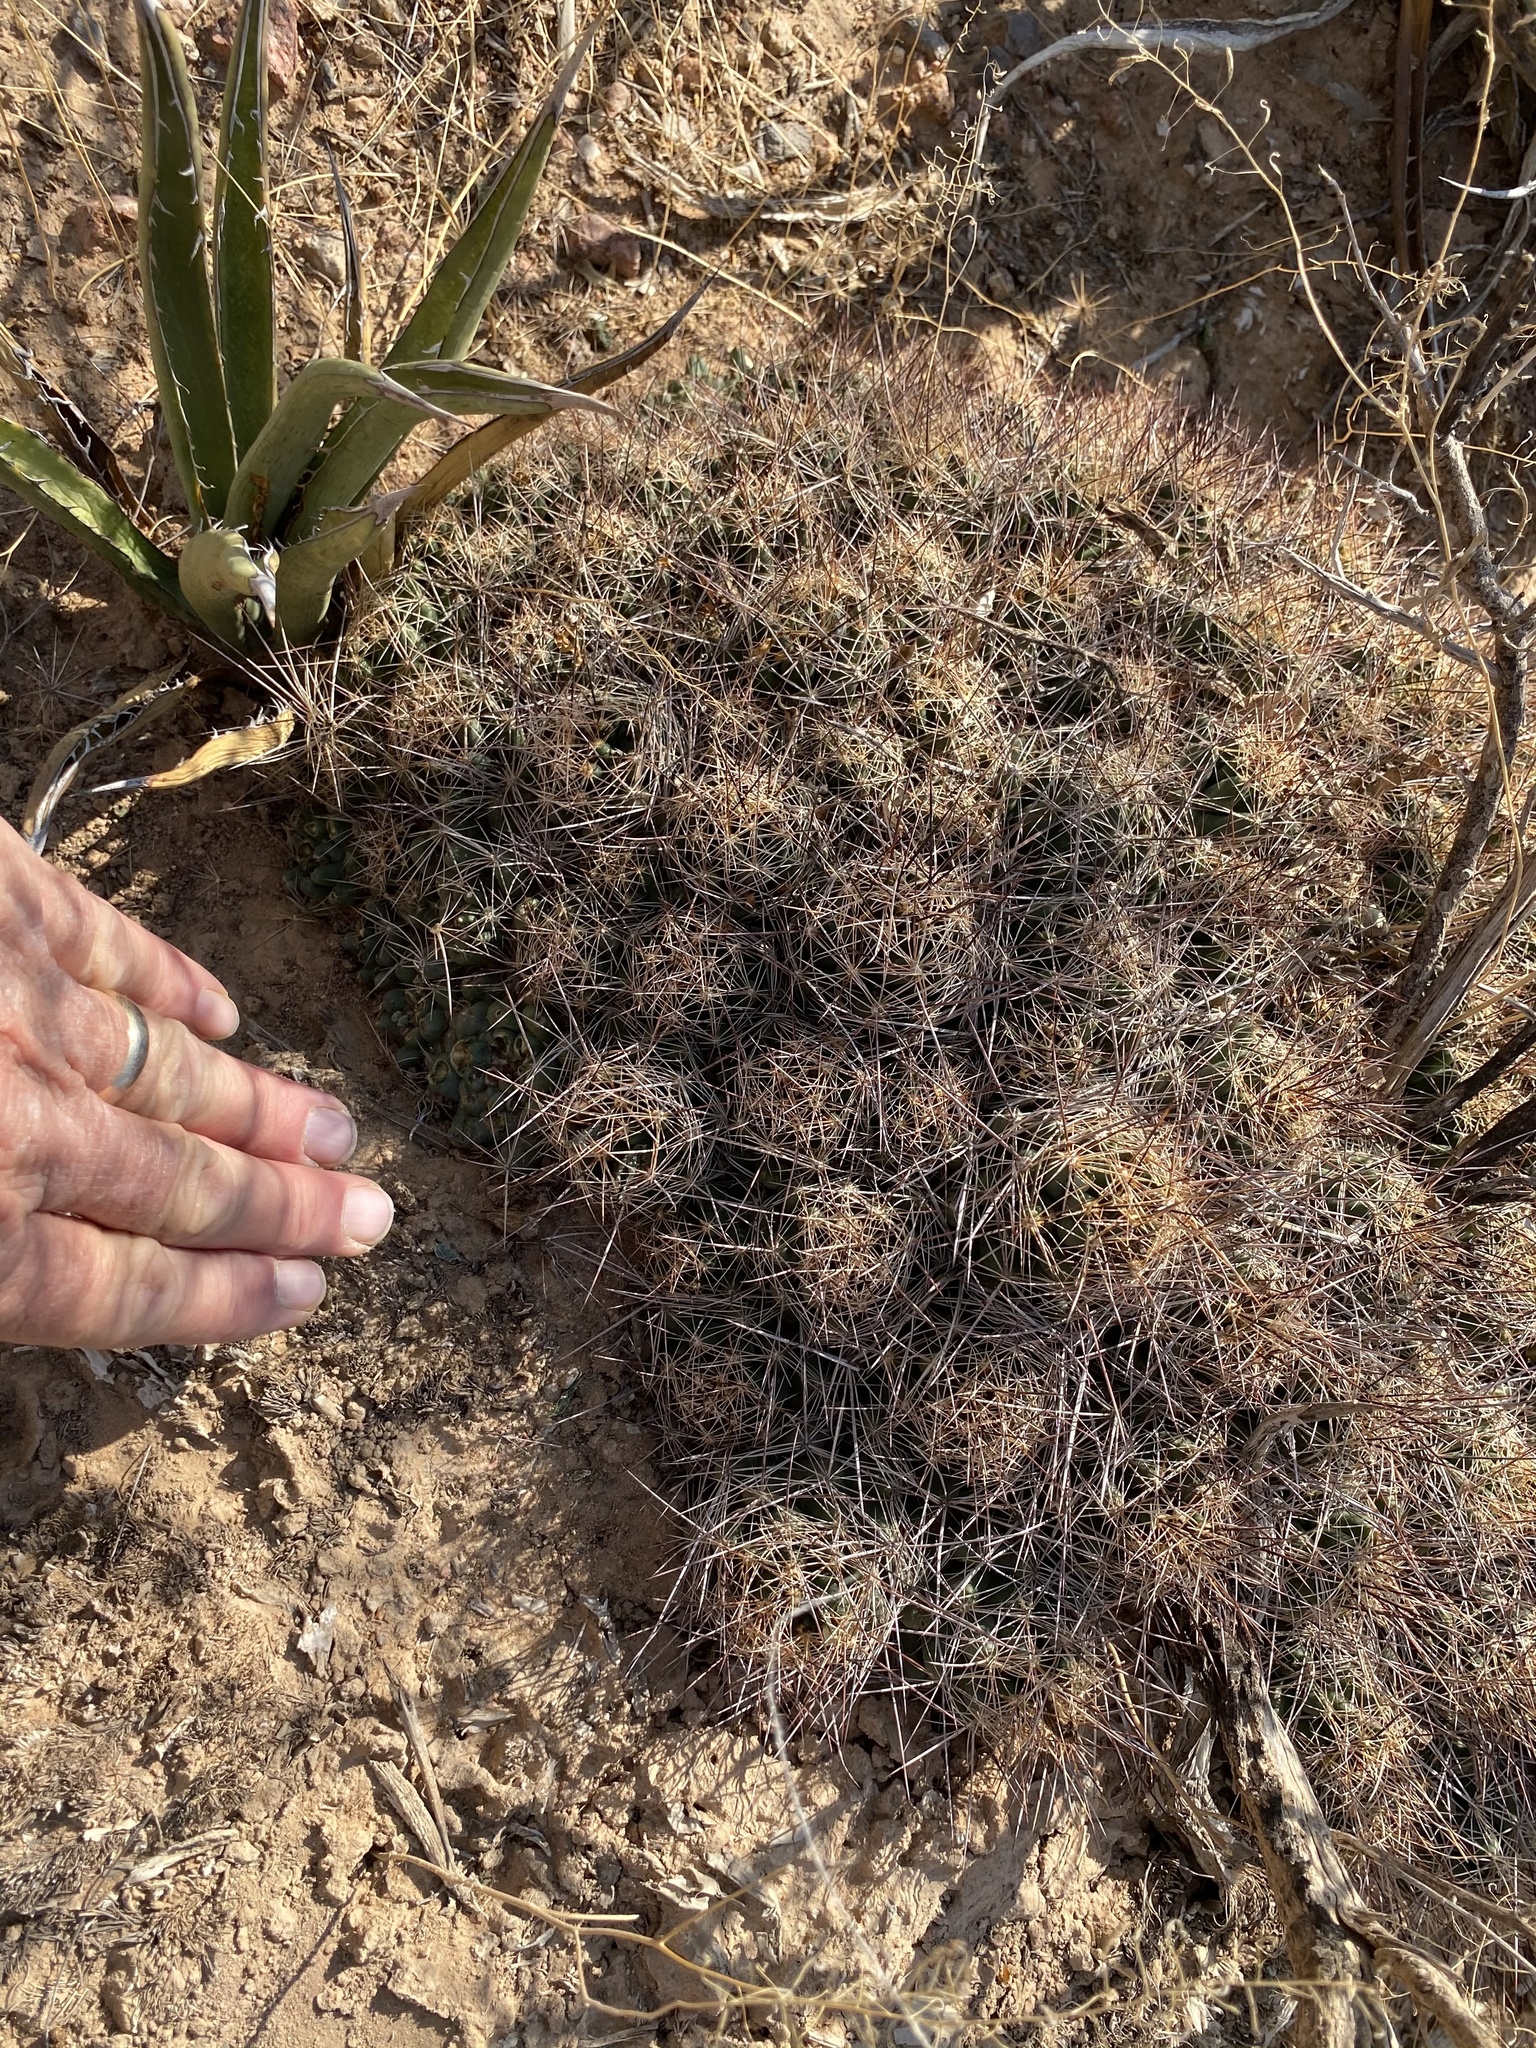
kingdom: Plantae
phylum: Tracheophyta
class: Magnoliopsida
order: Caryophyllales
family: Cactaceae
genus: Coryphantha
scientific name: Coryphantha macromeris
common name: Nipple beehive cactus
